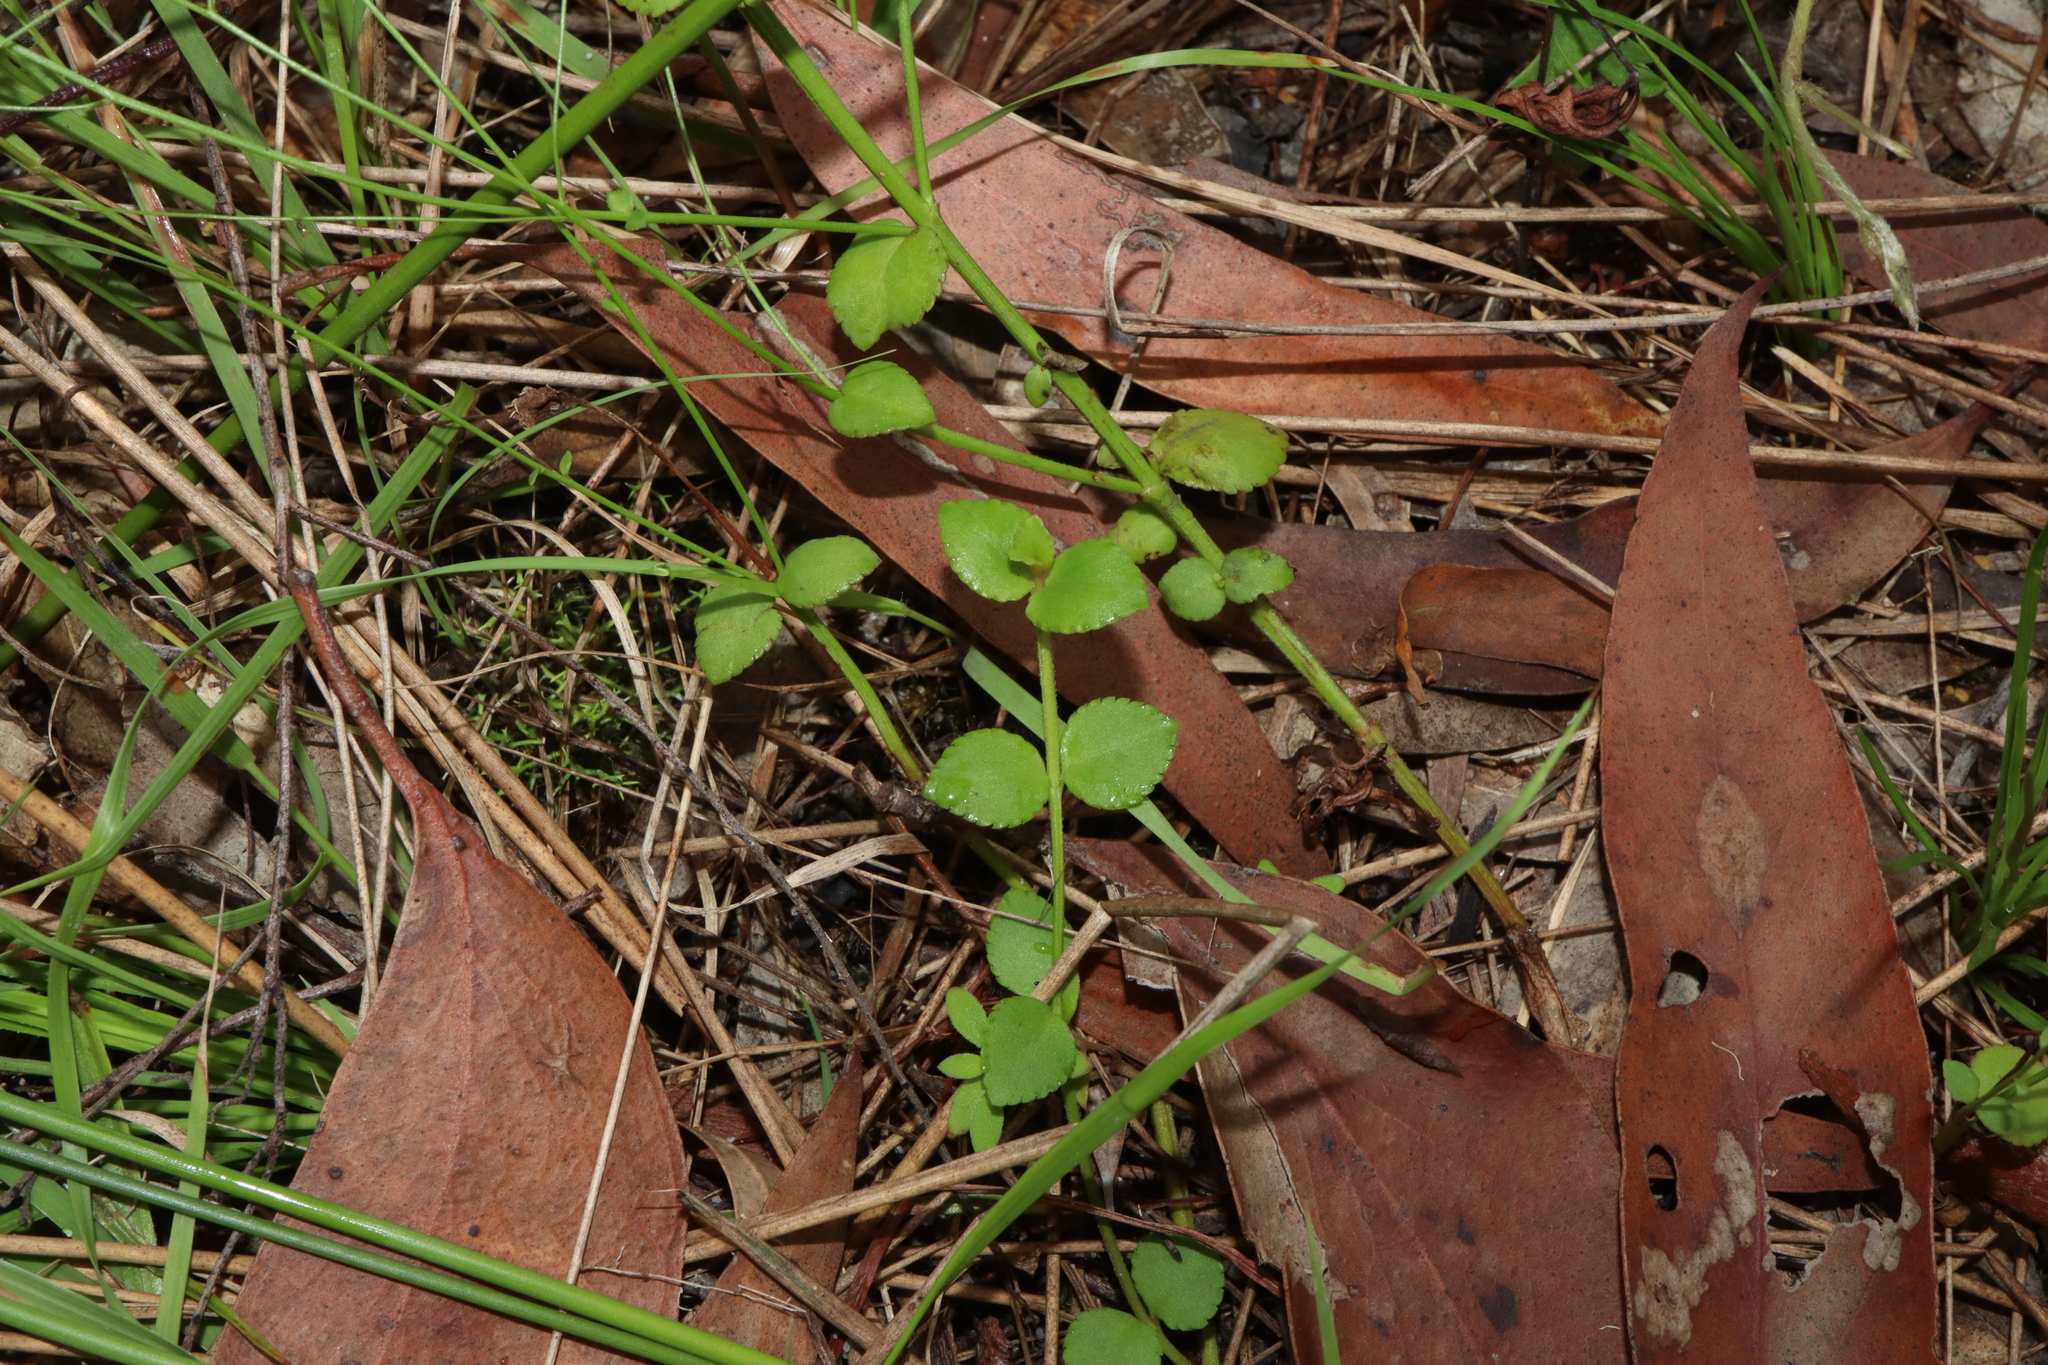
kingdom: Plantae
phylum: Tracheophyta
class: Magnoliopsida
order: Saxifragales
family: Haloragaceae
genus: Gonocarpus
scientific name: Gonocarpus micranthus
